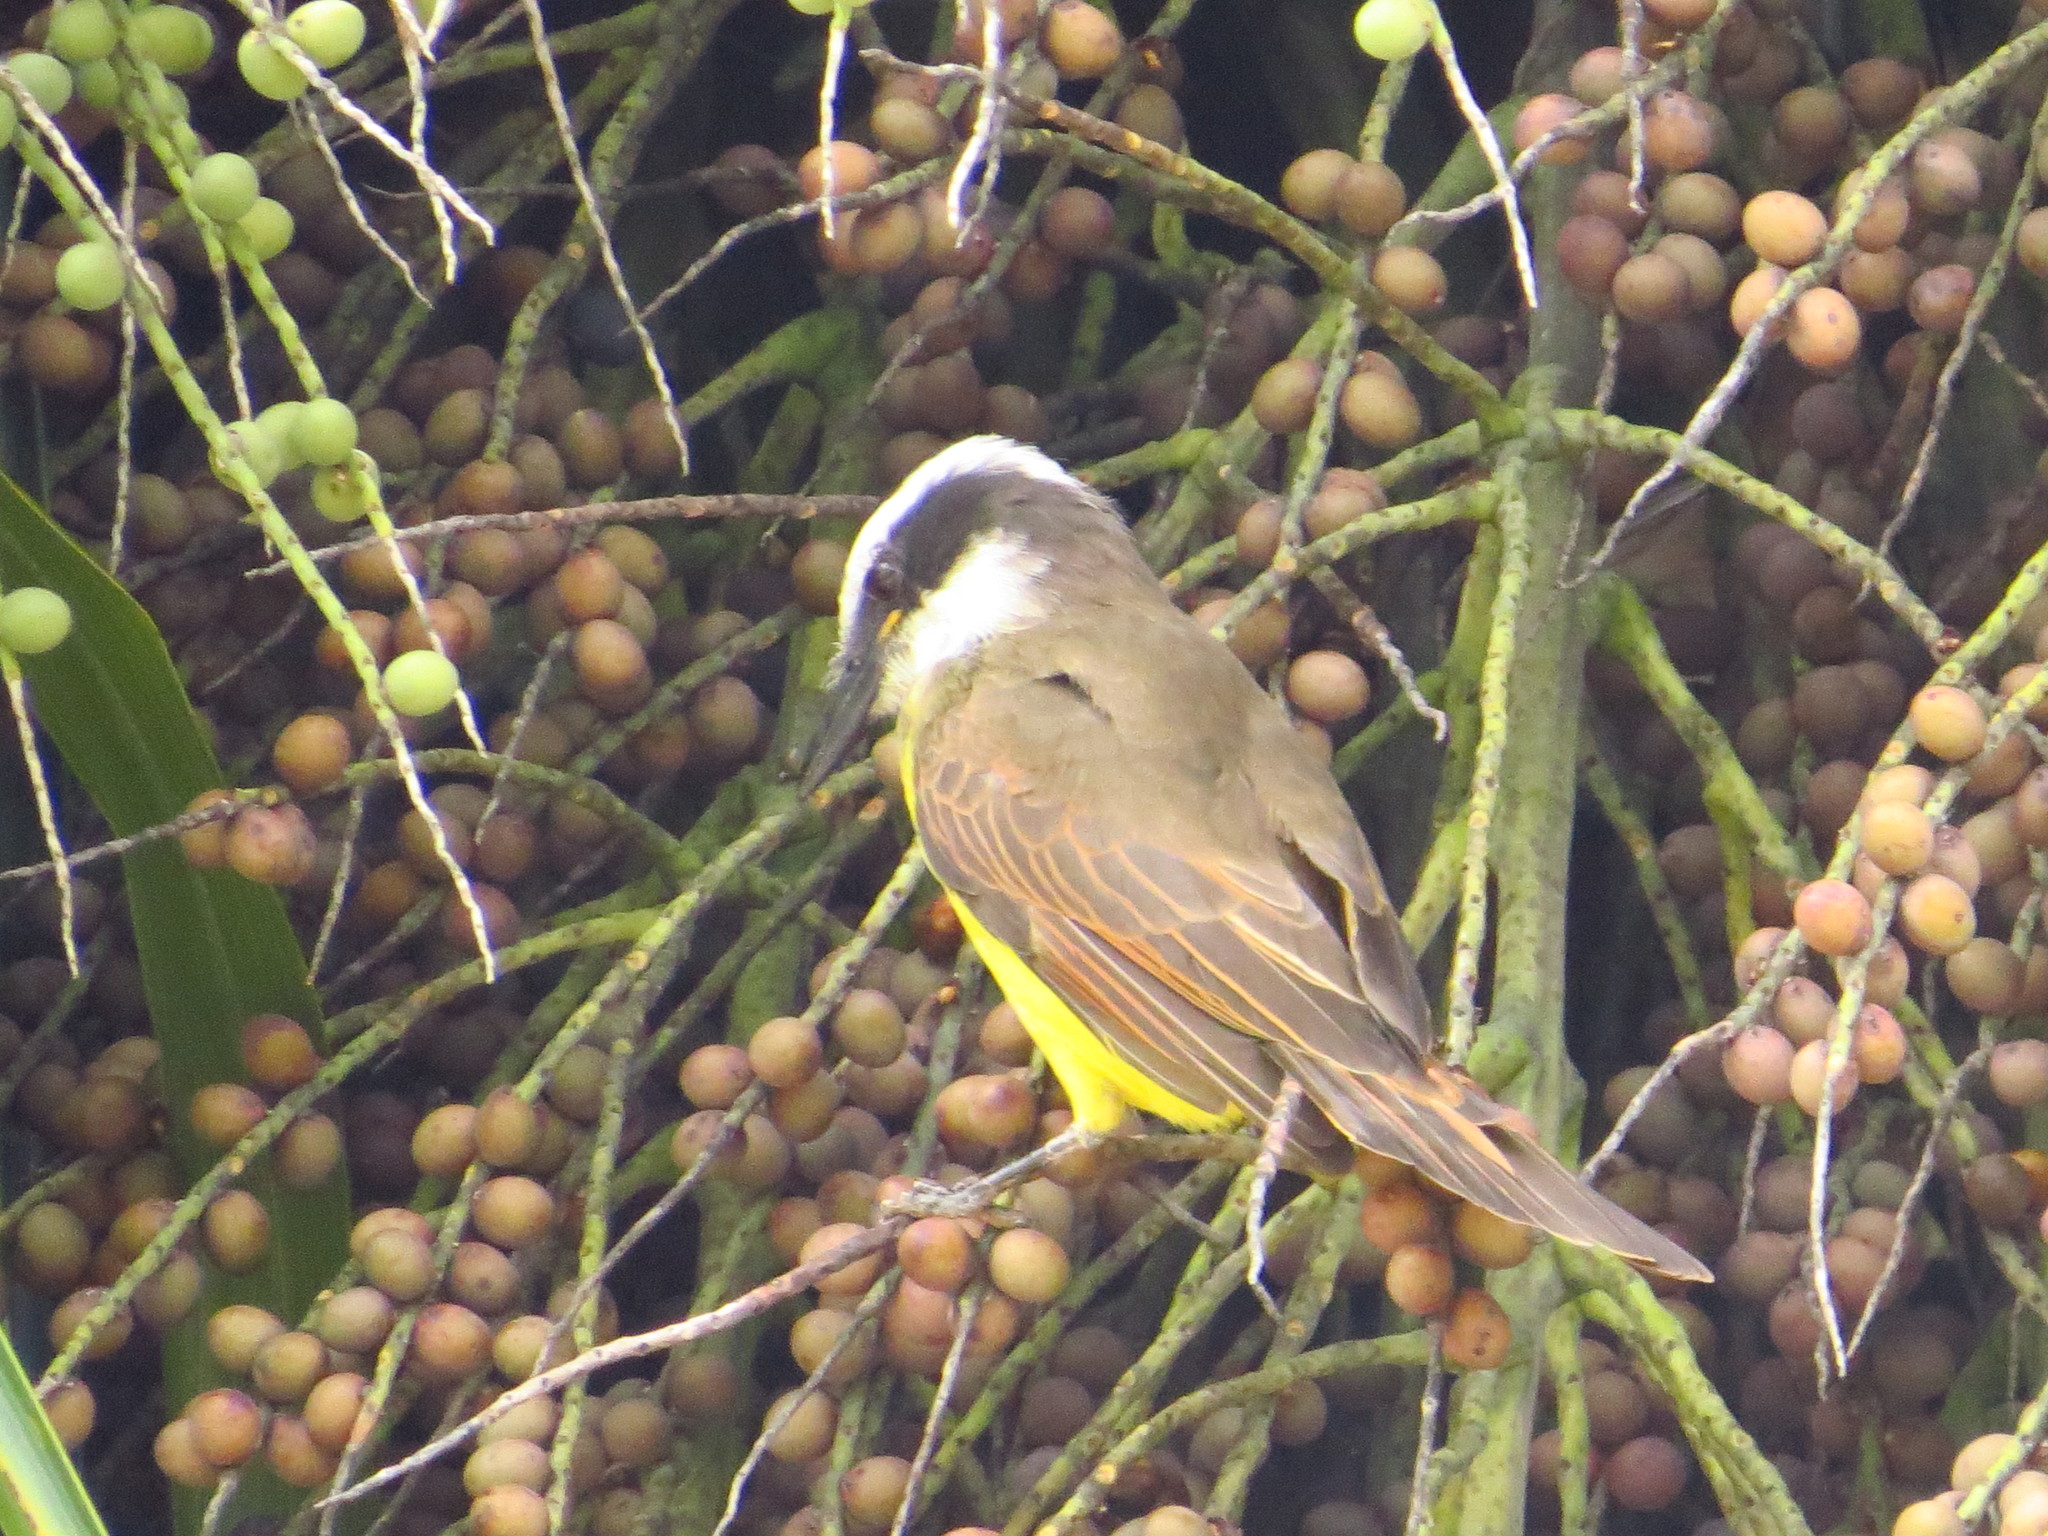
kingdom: Animalia
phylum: Chordata
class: Aves
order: Passeriformes
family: Tyrannidae
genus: Pitangus
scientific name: Pitangus sulphuratus
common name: Great kiskadee
